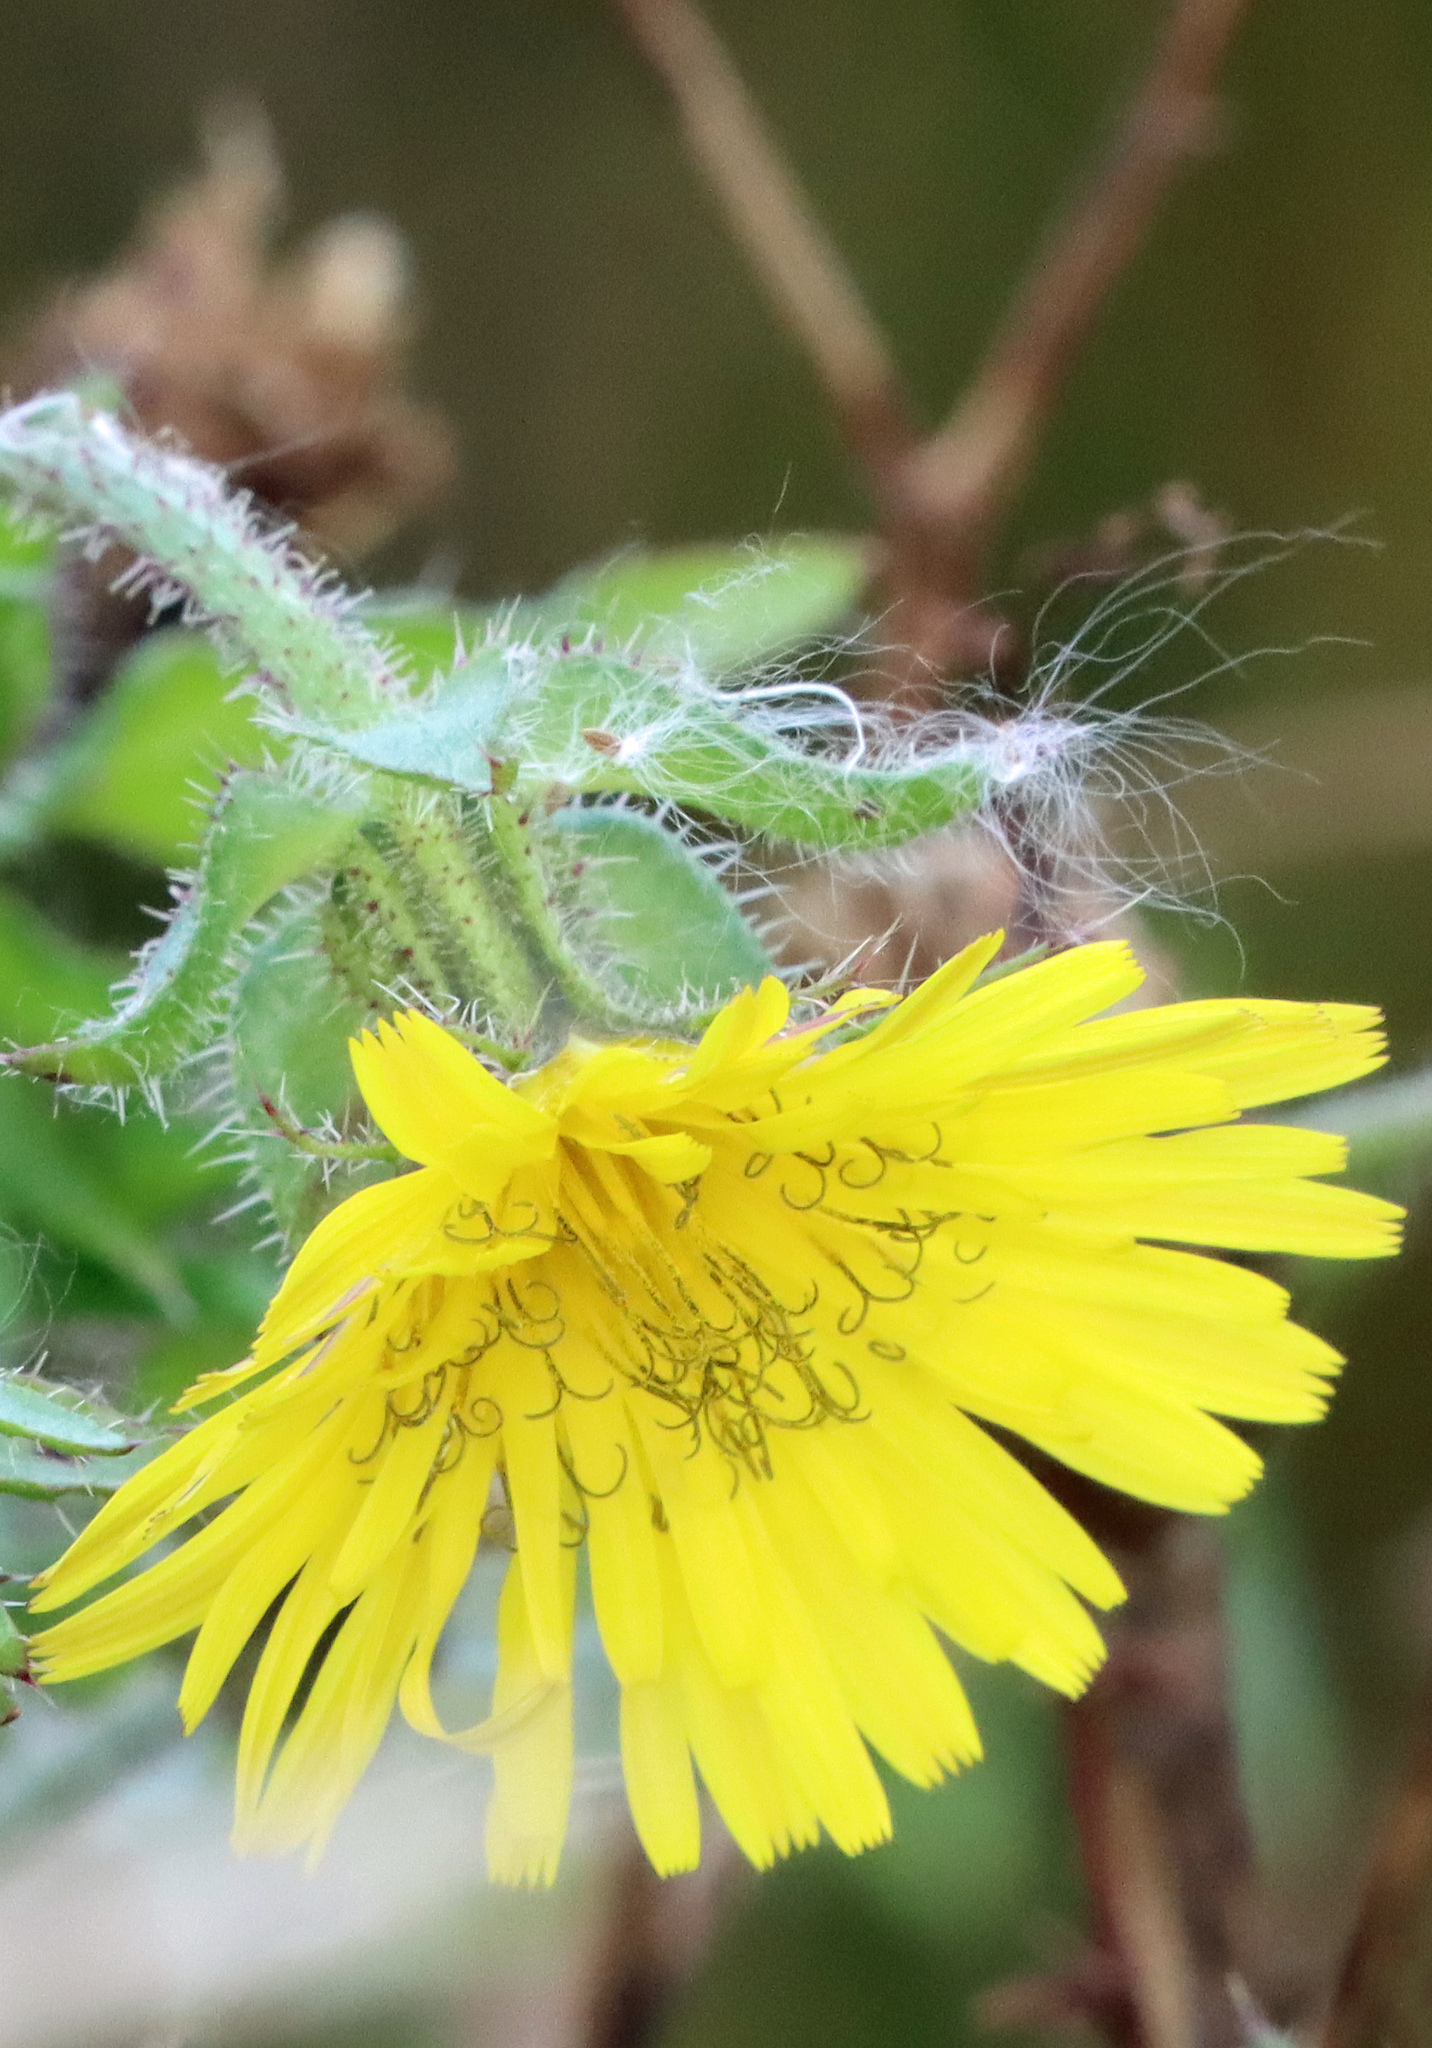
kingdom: Plantae
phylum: Tracheophyta
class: Magnoliopsida
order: Asterales
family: Asteraceae
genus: Helminthotheca
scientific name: Helminthotheca echioides
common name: Ox-tongue
